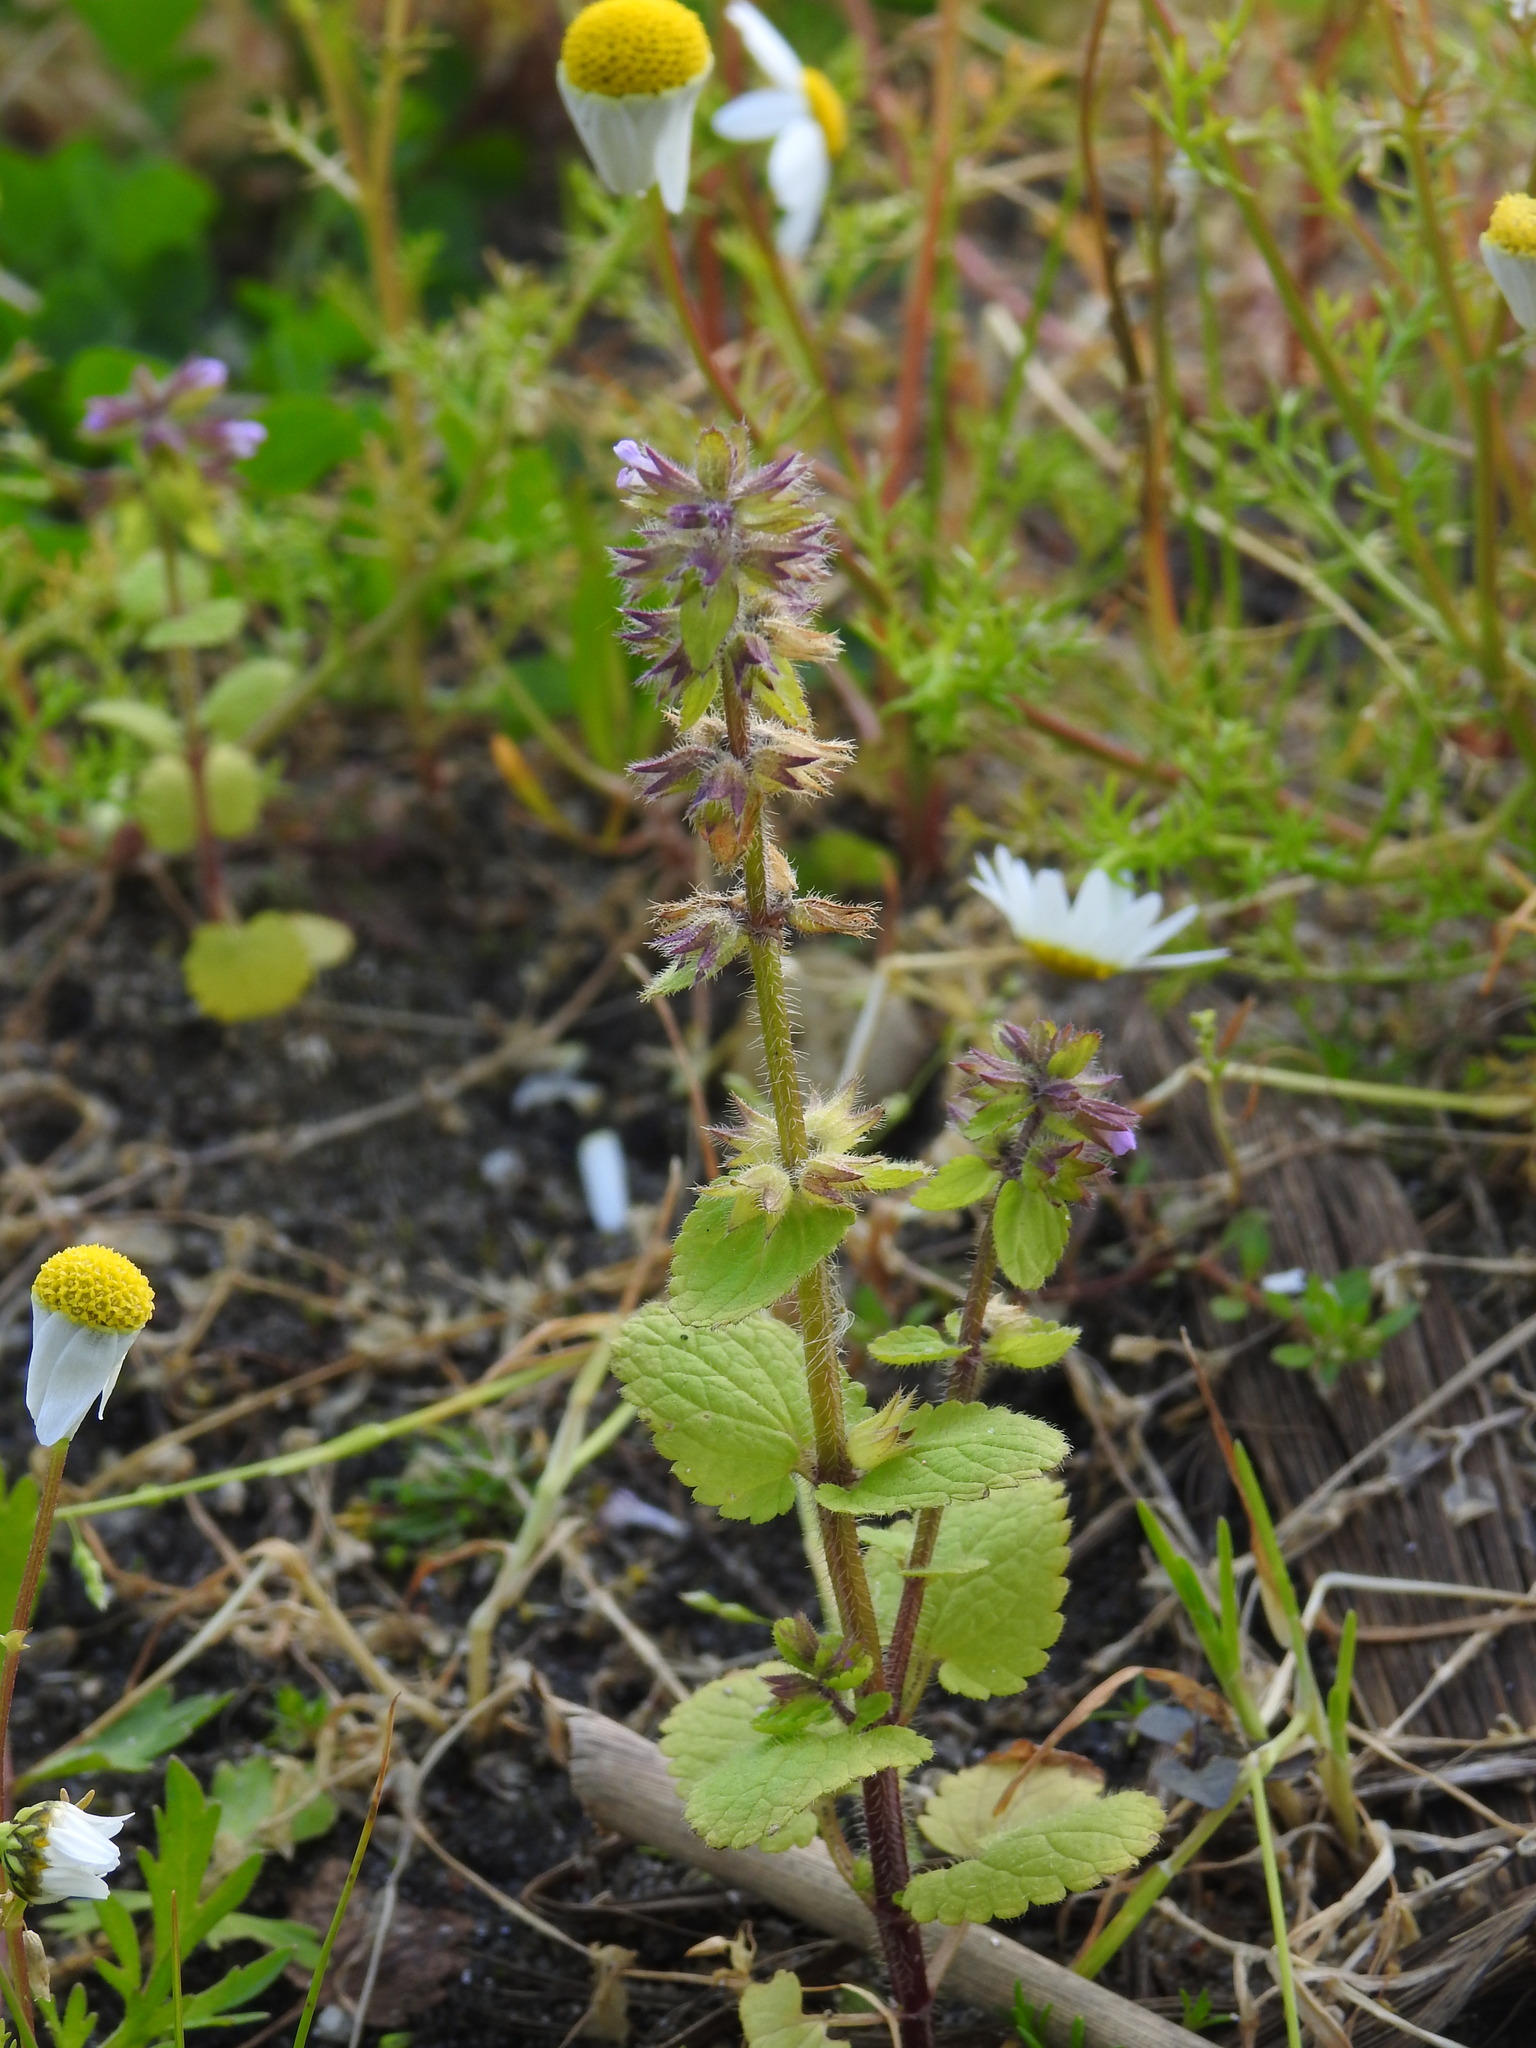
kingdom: Plantae
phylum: Tracheophyta
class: Magnoliopsida
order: Lamiales
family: Lamiaceae
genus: Stachys
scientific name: Stachys arvensis
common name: Field woundwort
